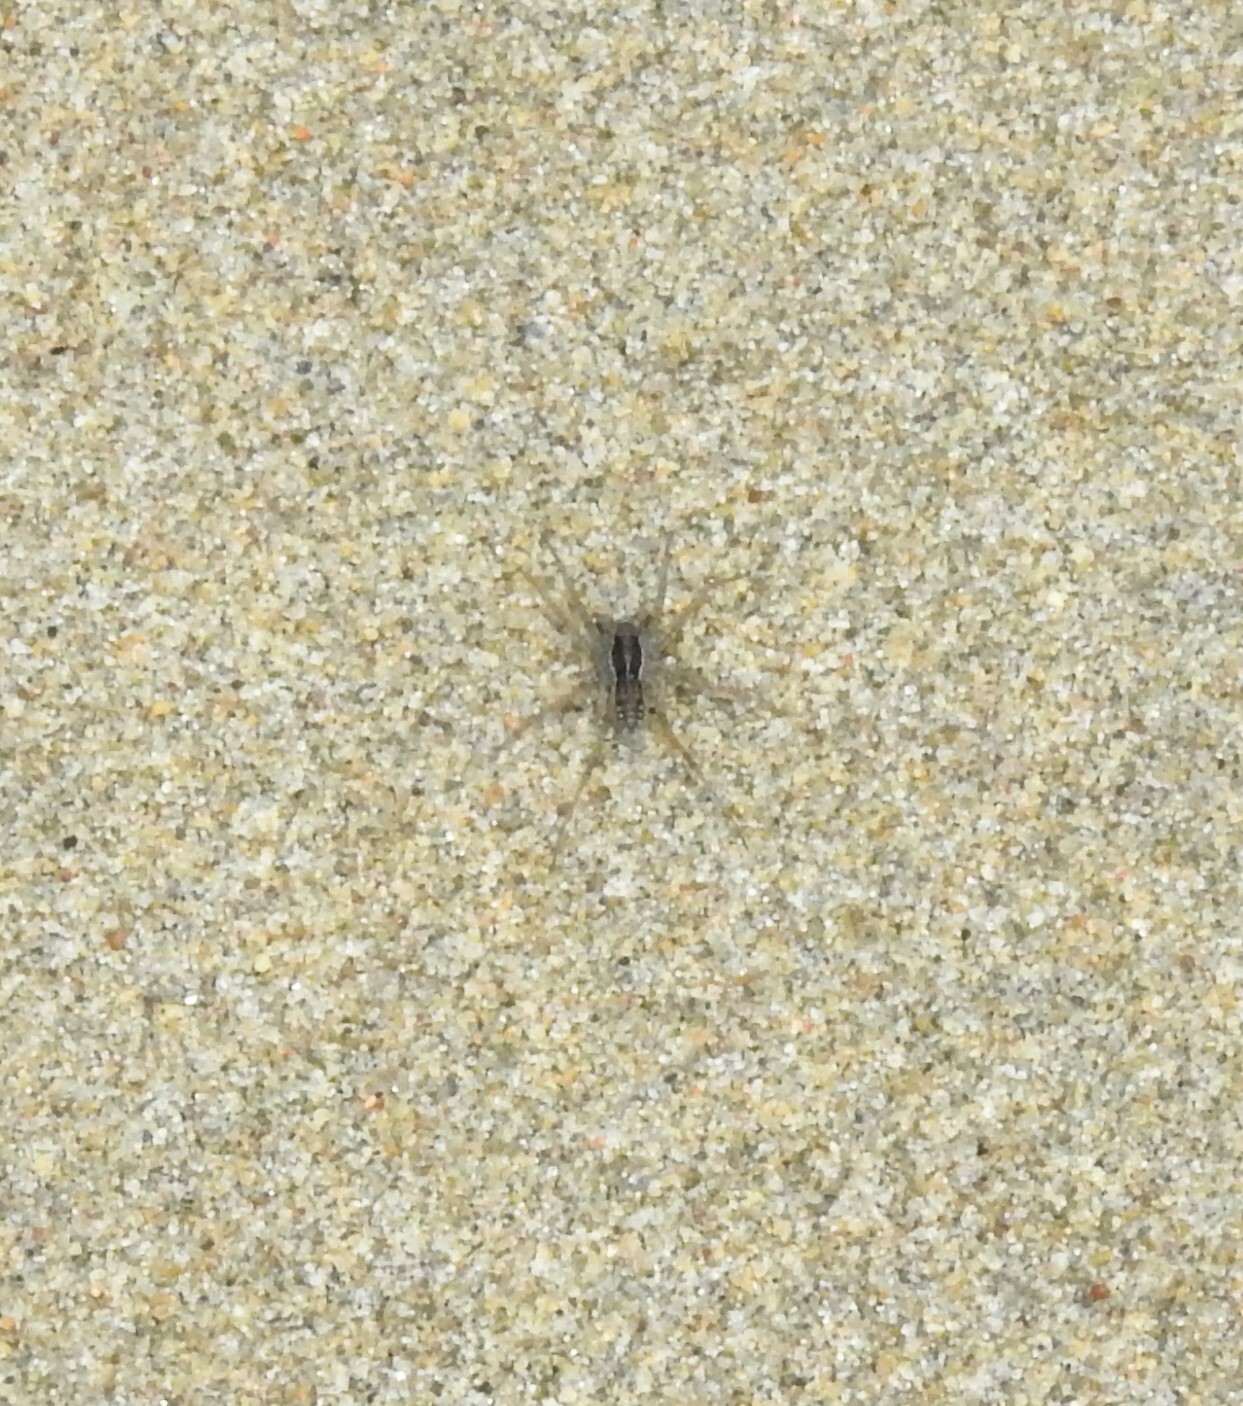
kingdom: Animalia
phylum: Arthropoda
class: Arachnida
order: Araneae
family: Lycosidae
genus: Pardosa
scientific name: Pardosa
